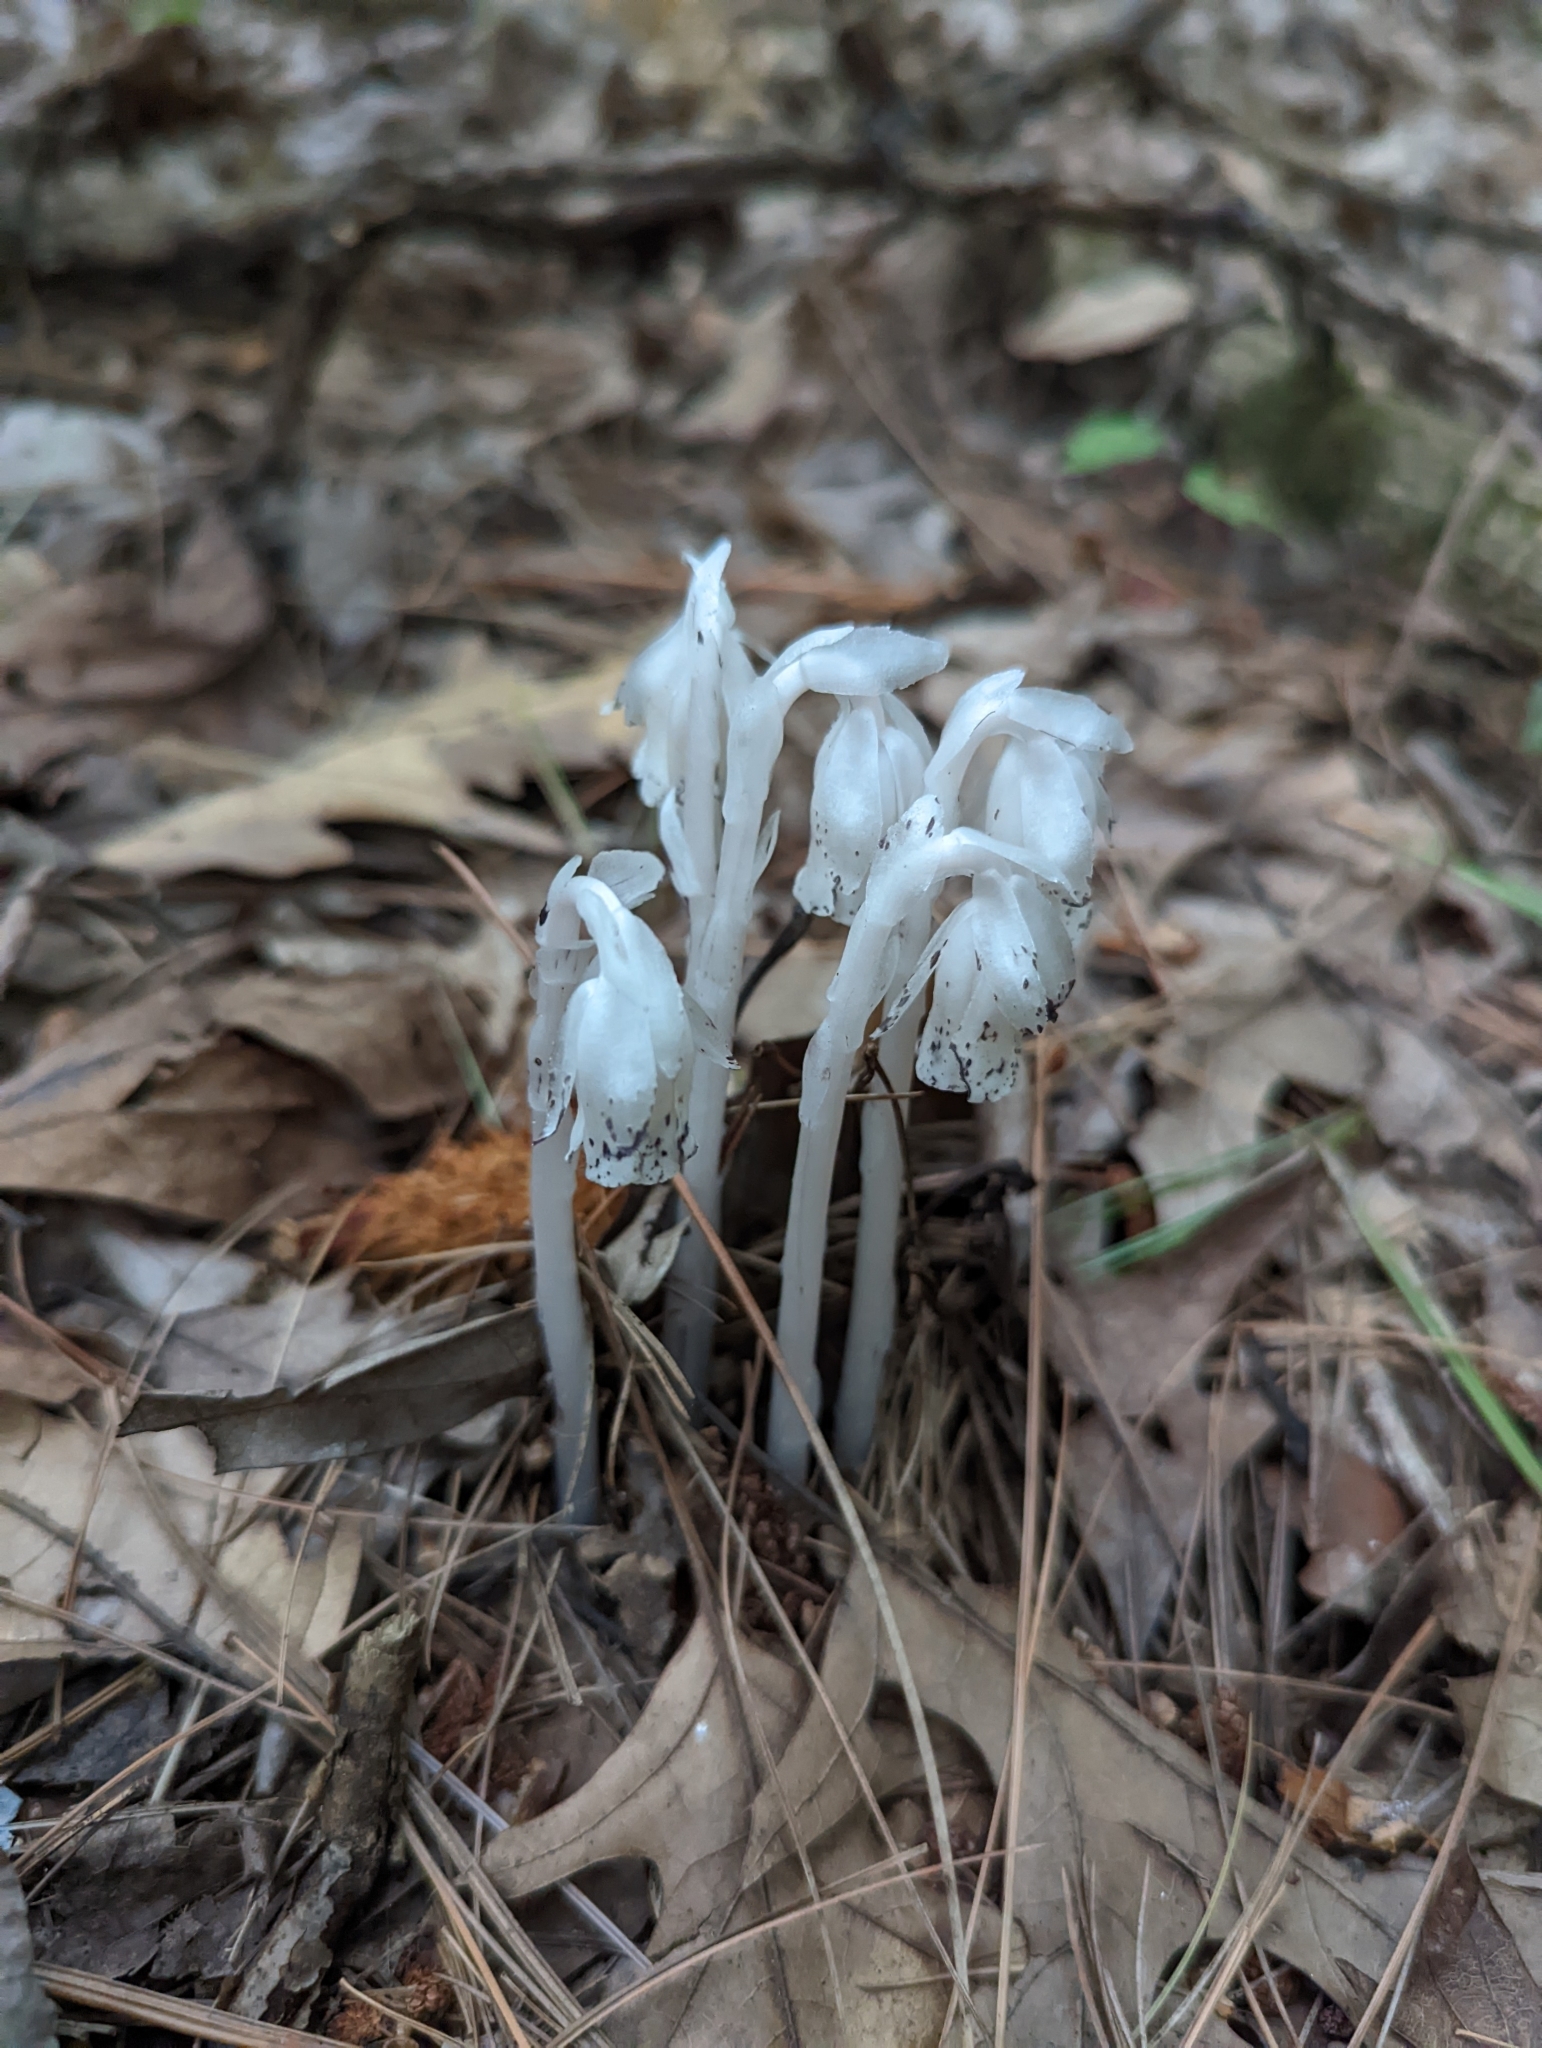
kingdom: Plantae
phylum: Tracheophyta
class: Magnoliopsida
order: Ericales
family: Ericaceae
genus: Monotropa
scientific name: Monotropa uniflora
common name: Convulsion root
